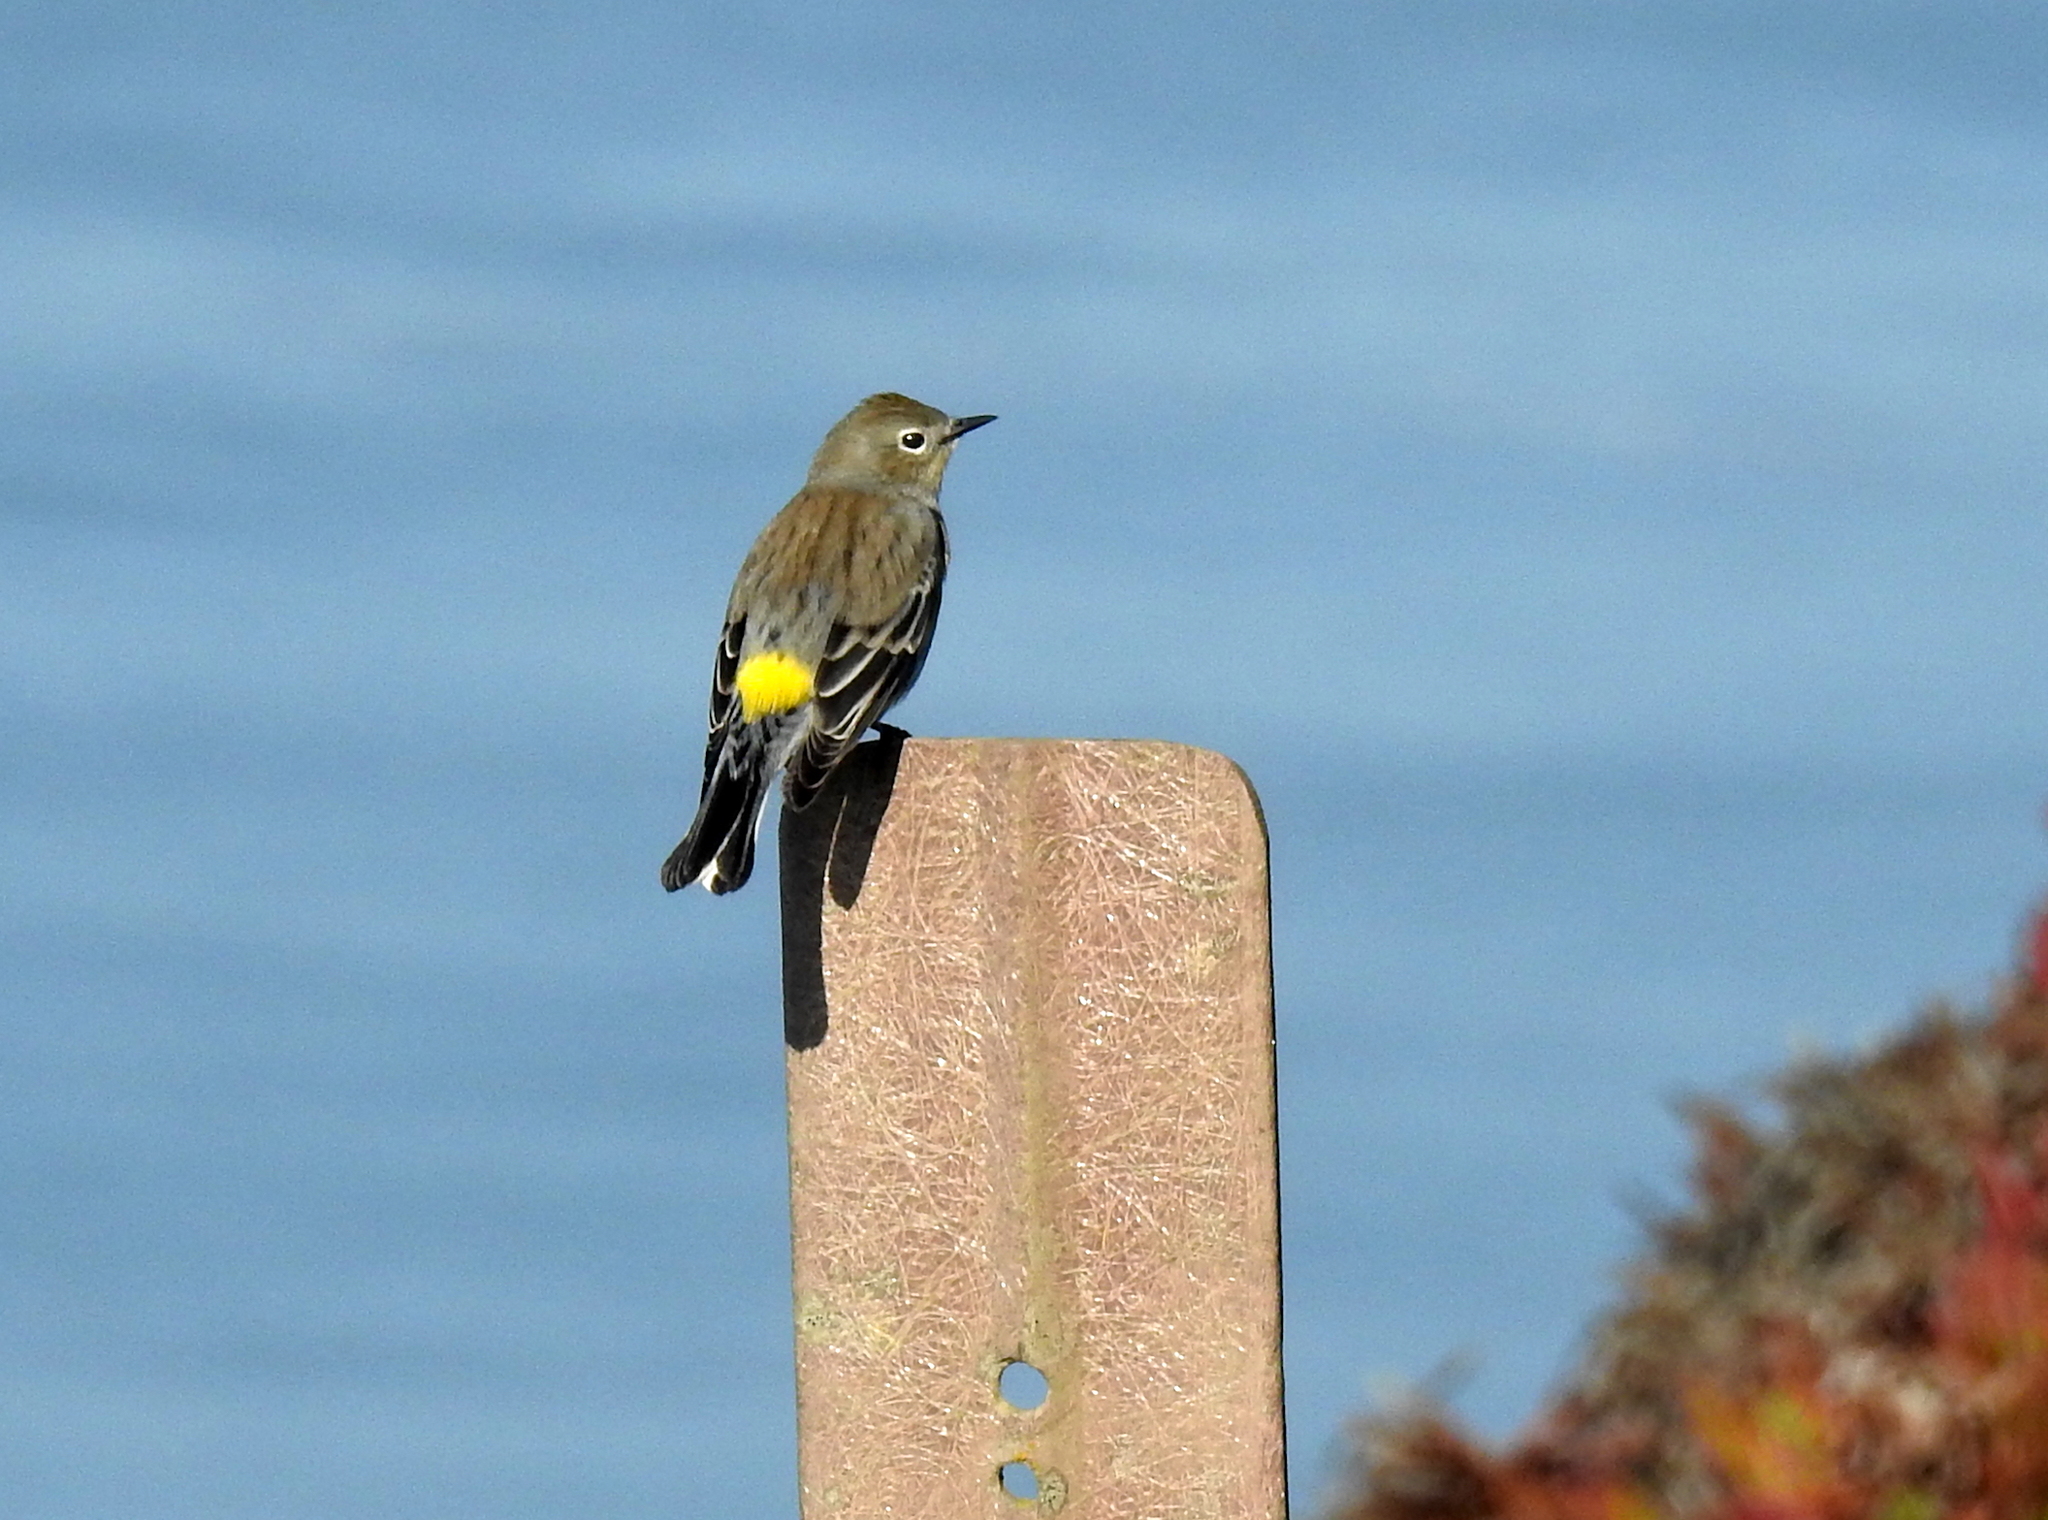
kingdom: Animalia
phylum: Chordata
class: Aves
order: Passeriformes
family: Parulidae
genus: Setophaga
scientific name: Setophaga auduboni
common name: Audubon's warbler
